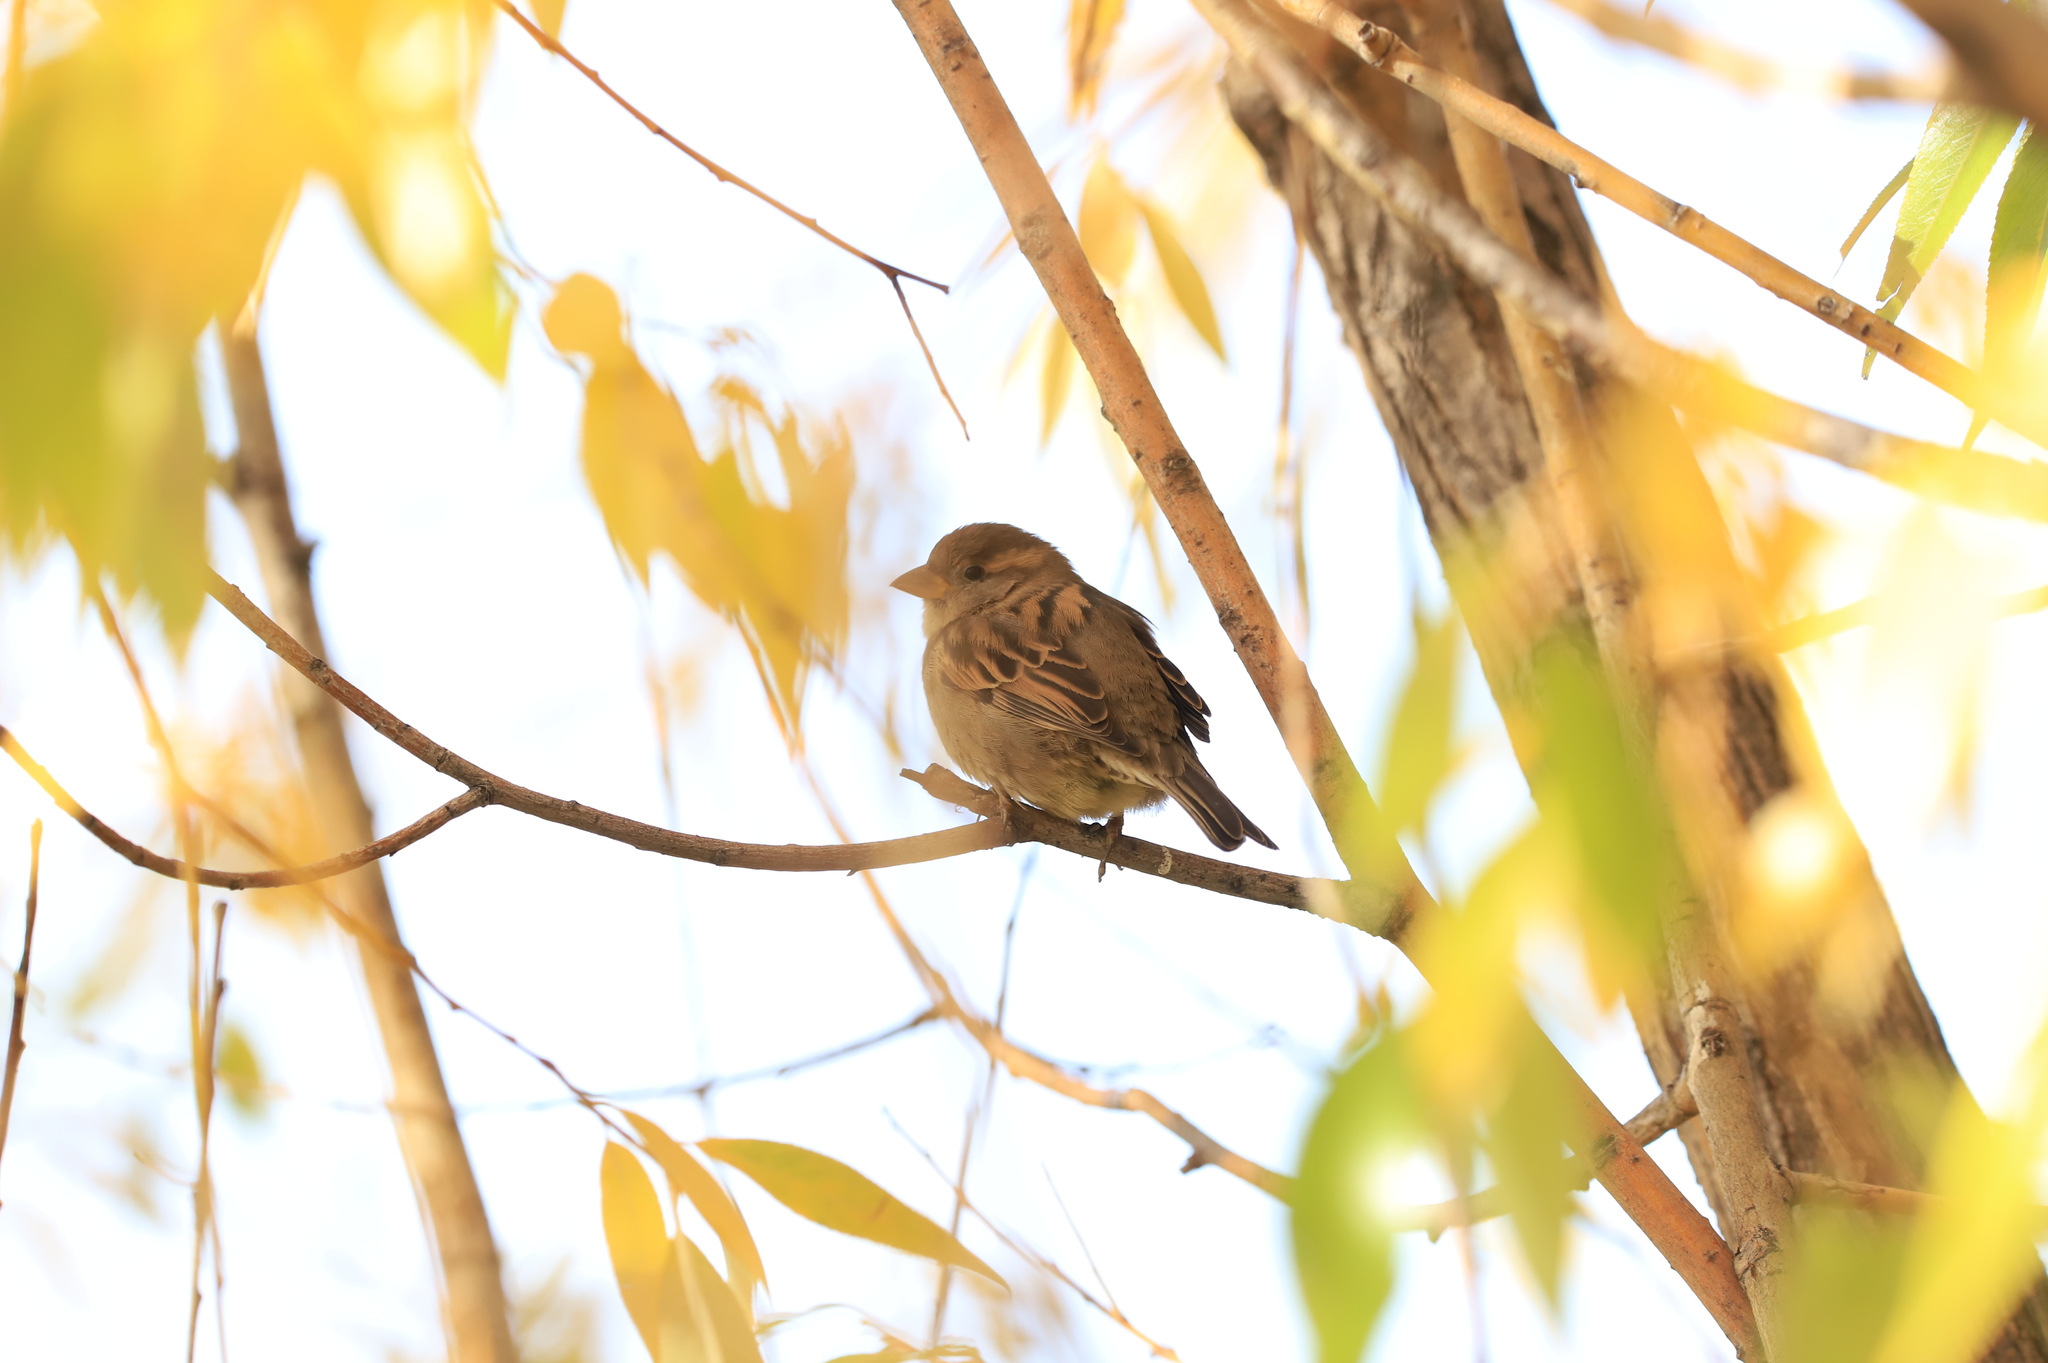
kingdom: Animalia
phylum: Chordata
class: Aves
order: Passeriformes
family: Passeridae
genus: Passer
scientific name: Passer domesticus
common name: House sparrow
